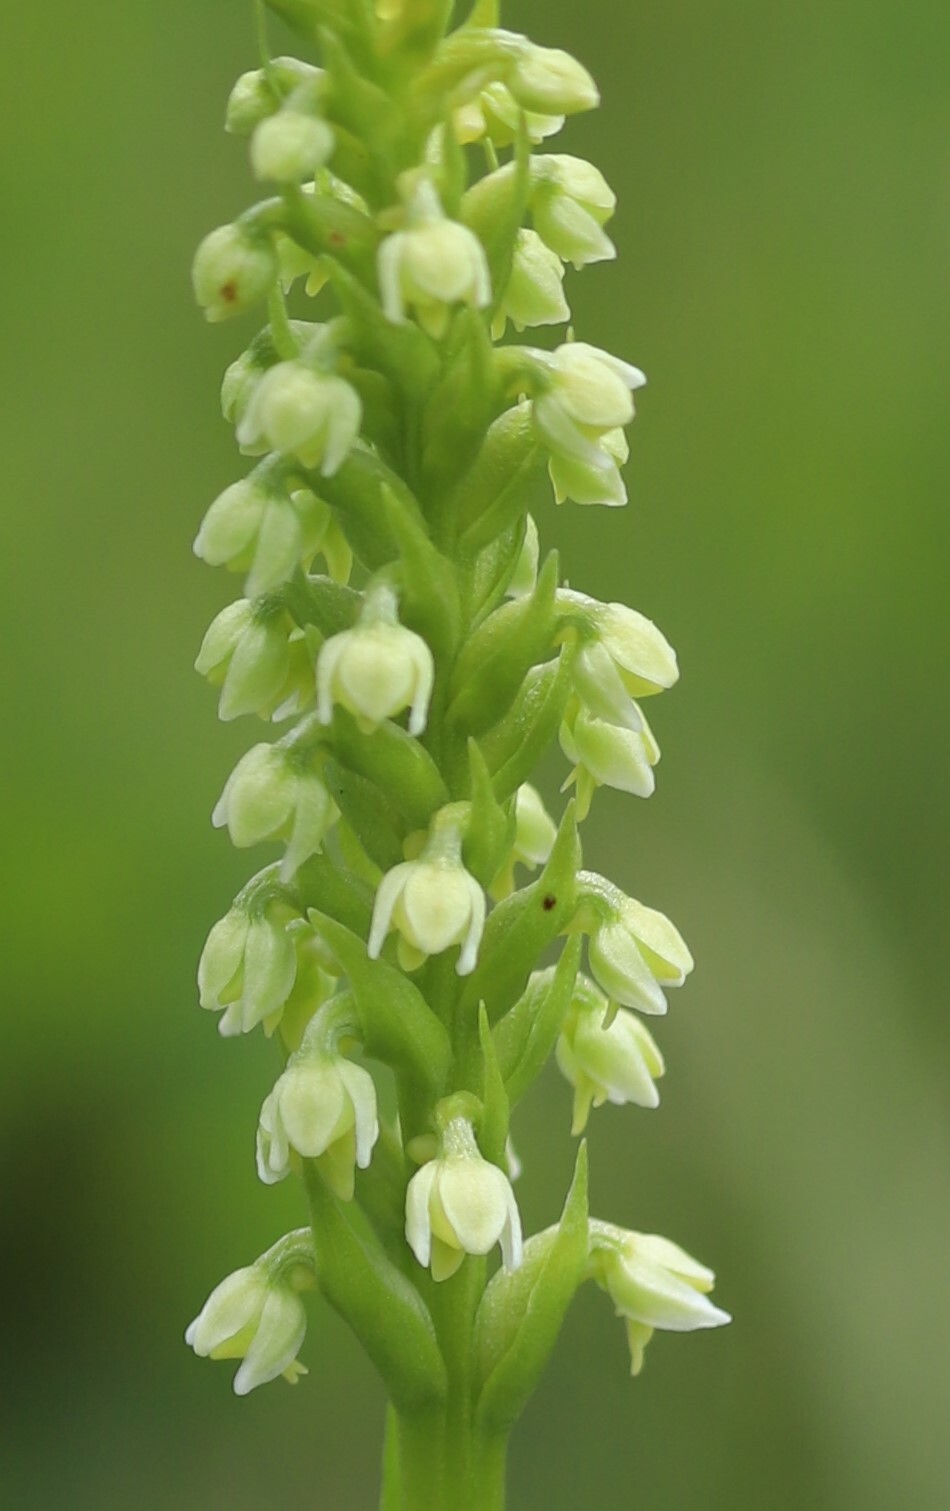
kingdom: Plantae
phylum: Tracheophyta
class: Liliopsida
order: Asparagales
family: Orchidaceae
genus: Pseudorchis
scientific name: Pseudorchis albida
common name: Small-white orchid
